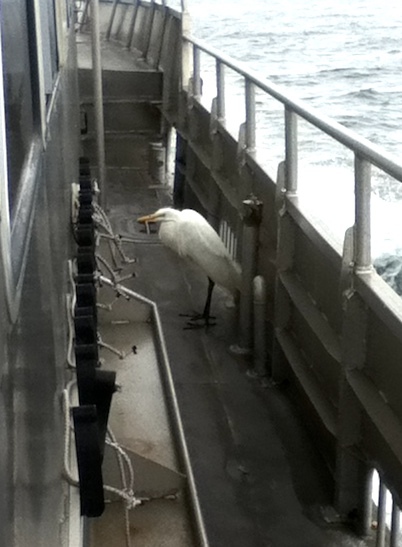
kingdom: Animalia
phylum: Chordata
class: Aves
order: Pelecaniformes
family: Ardeidae
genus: Ardea
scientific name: Ardea alba
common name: Great egret
